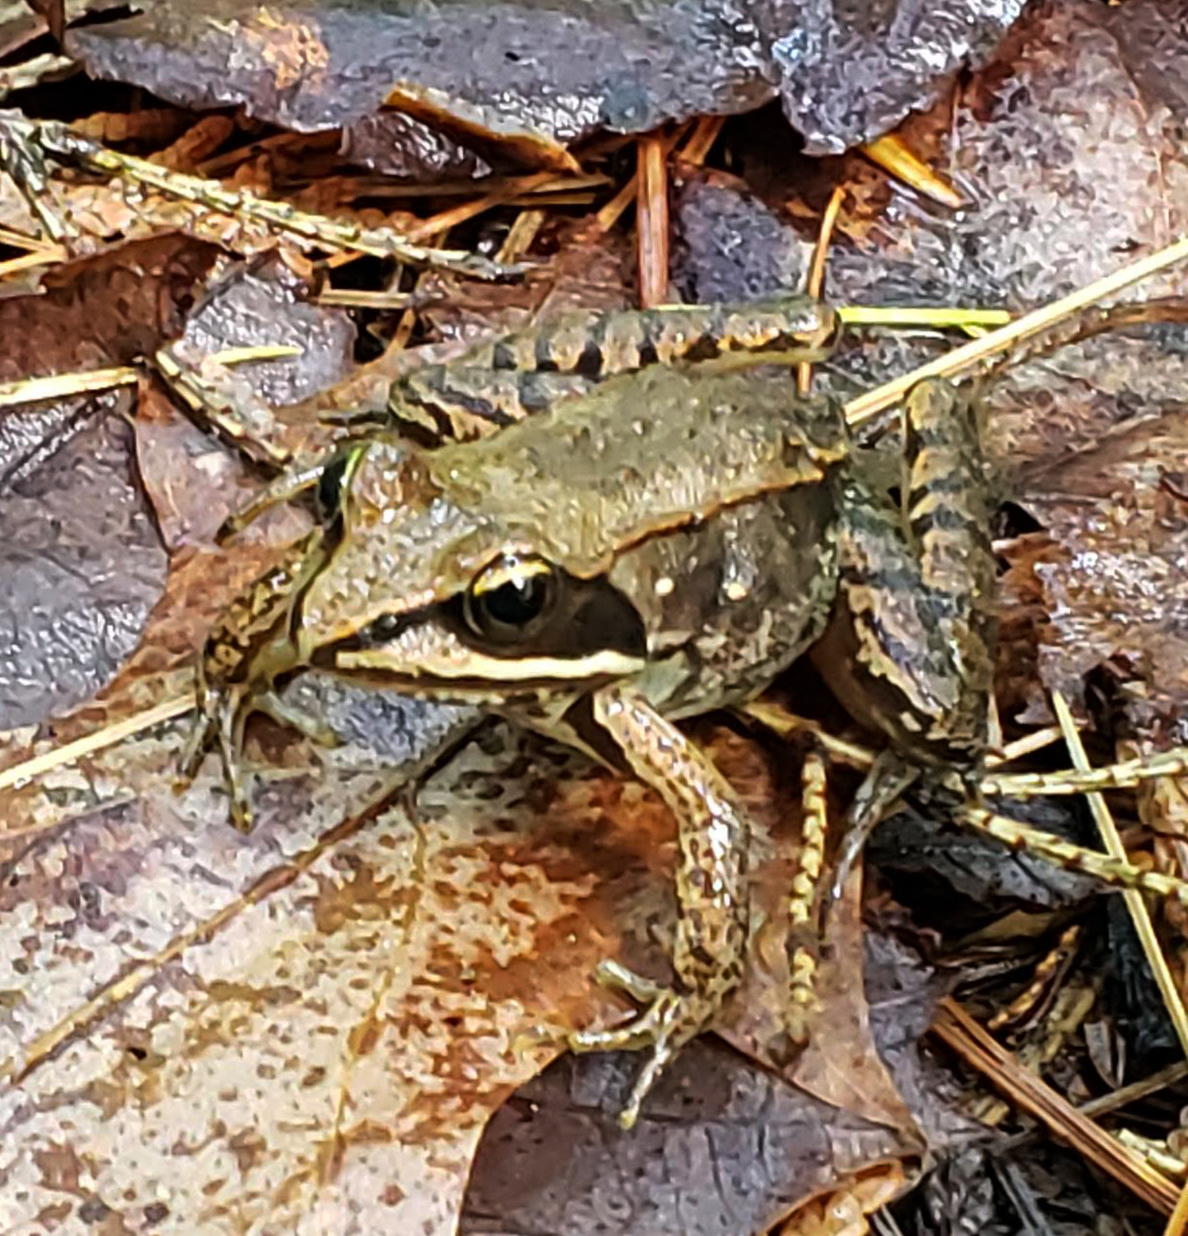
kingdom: Animalia
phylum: Chordata
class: Amphibia
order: Anura
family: Ranidae
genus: Lithobates
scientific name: Lithobates sylvaticus
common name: Wood frog
